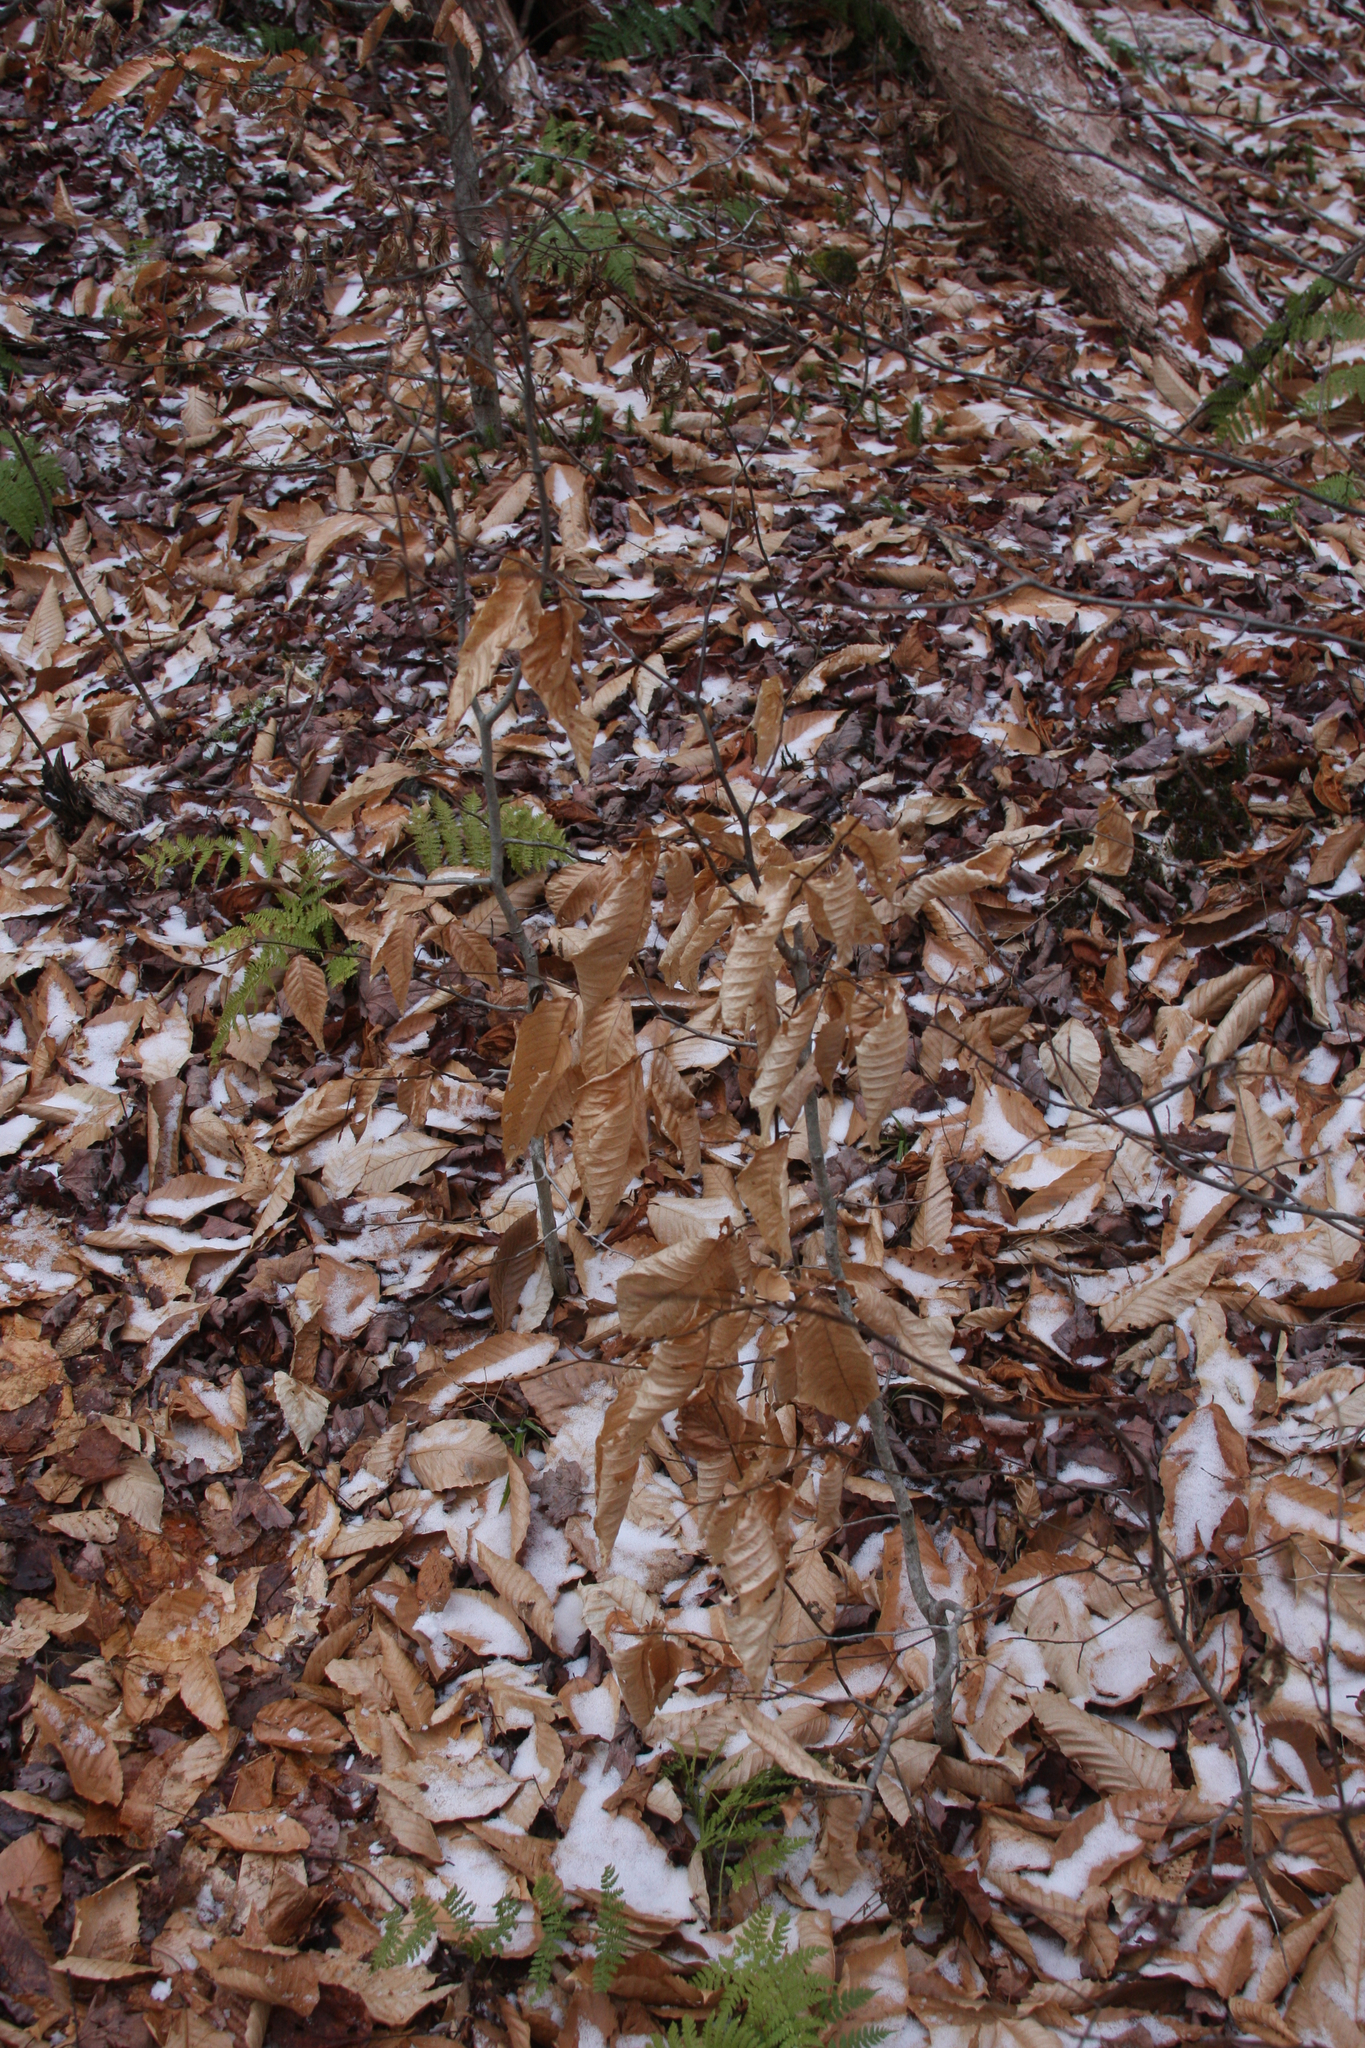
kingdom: Plantae
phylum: Tracheophyta
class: Magnoliopsida
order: Fagales
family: Fagaceae
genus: Fagus
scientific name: Fagus grandifolia
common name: American beech
